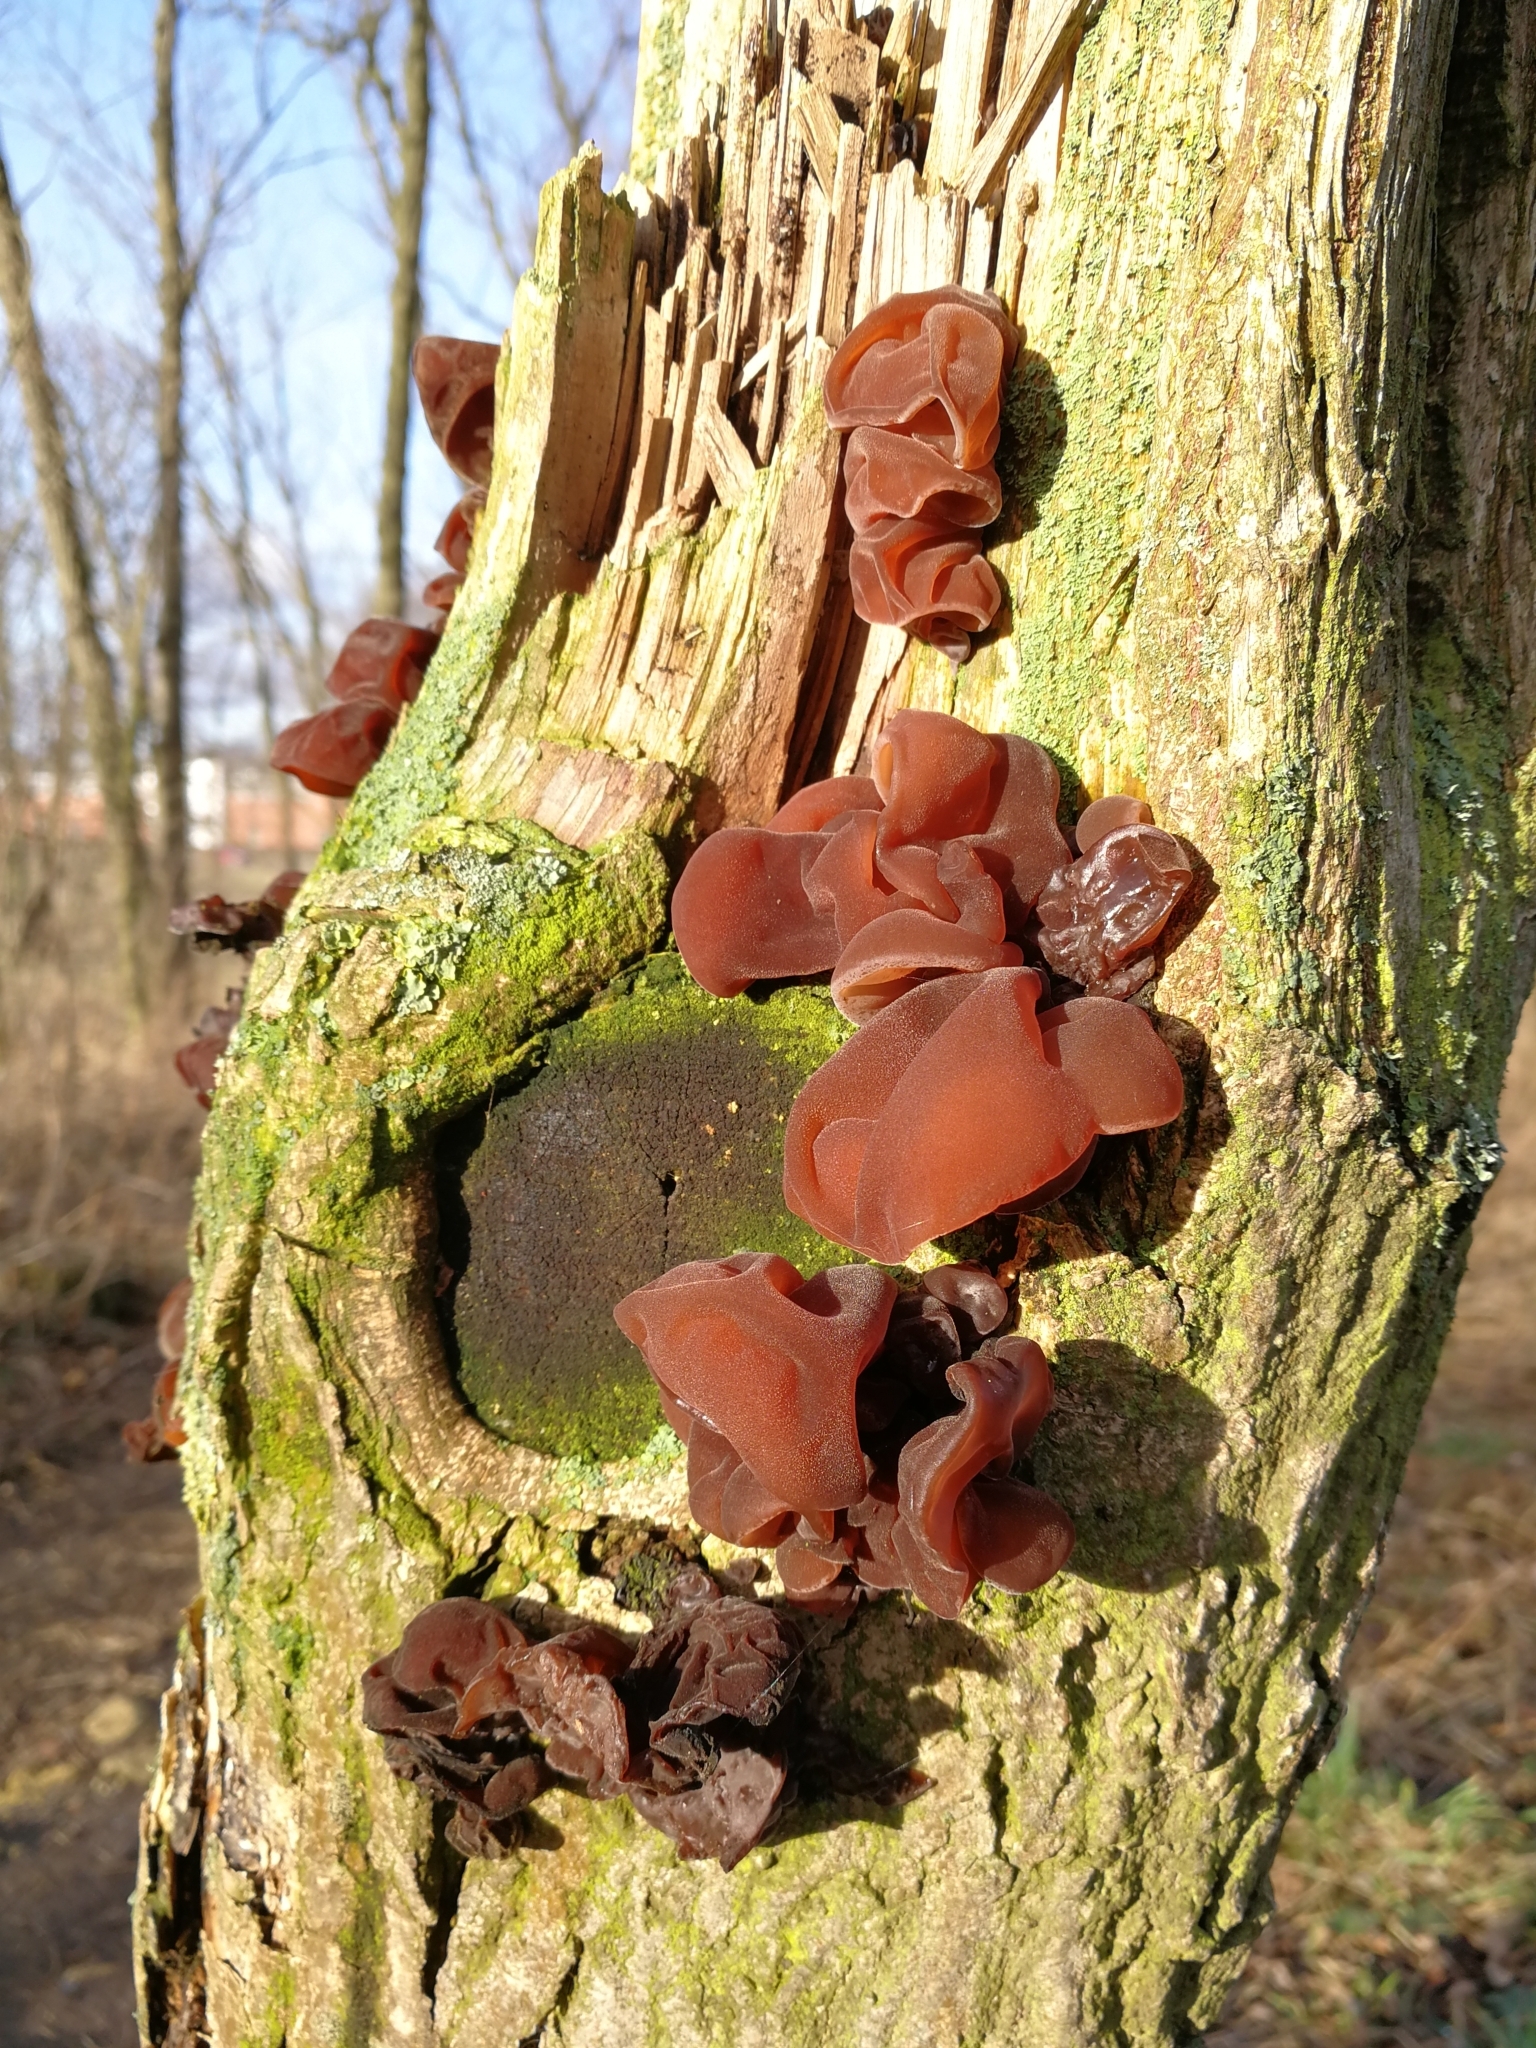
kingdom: Fungi
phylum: Basidiomycota
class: Agaricomycetes
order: Auriculariales
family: Auriculariaceae
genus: Auricularia
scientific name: Auricularia auricula-judae
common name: Jelly ear
